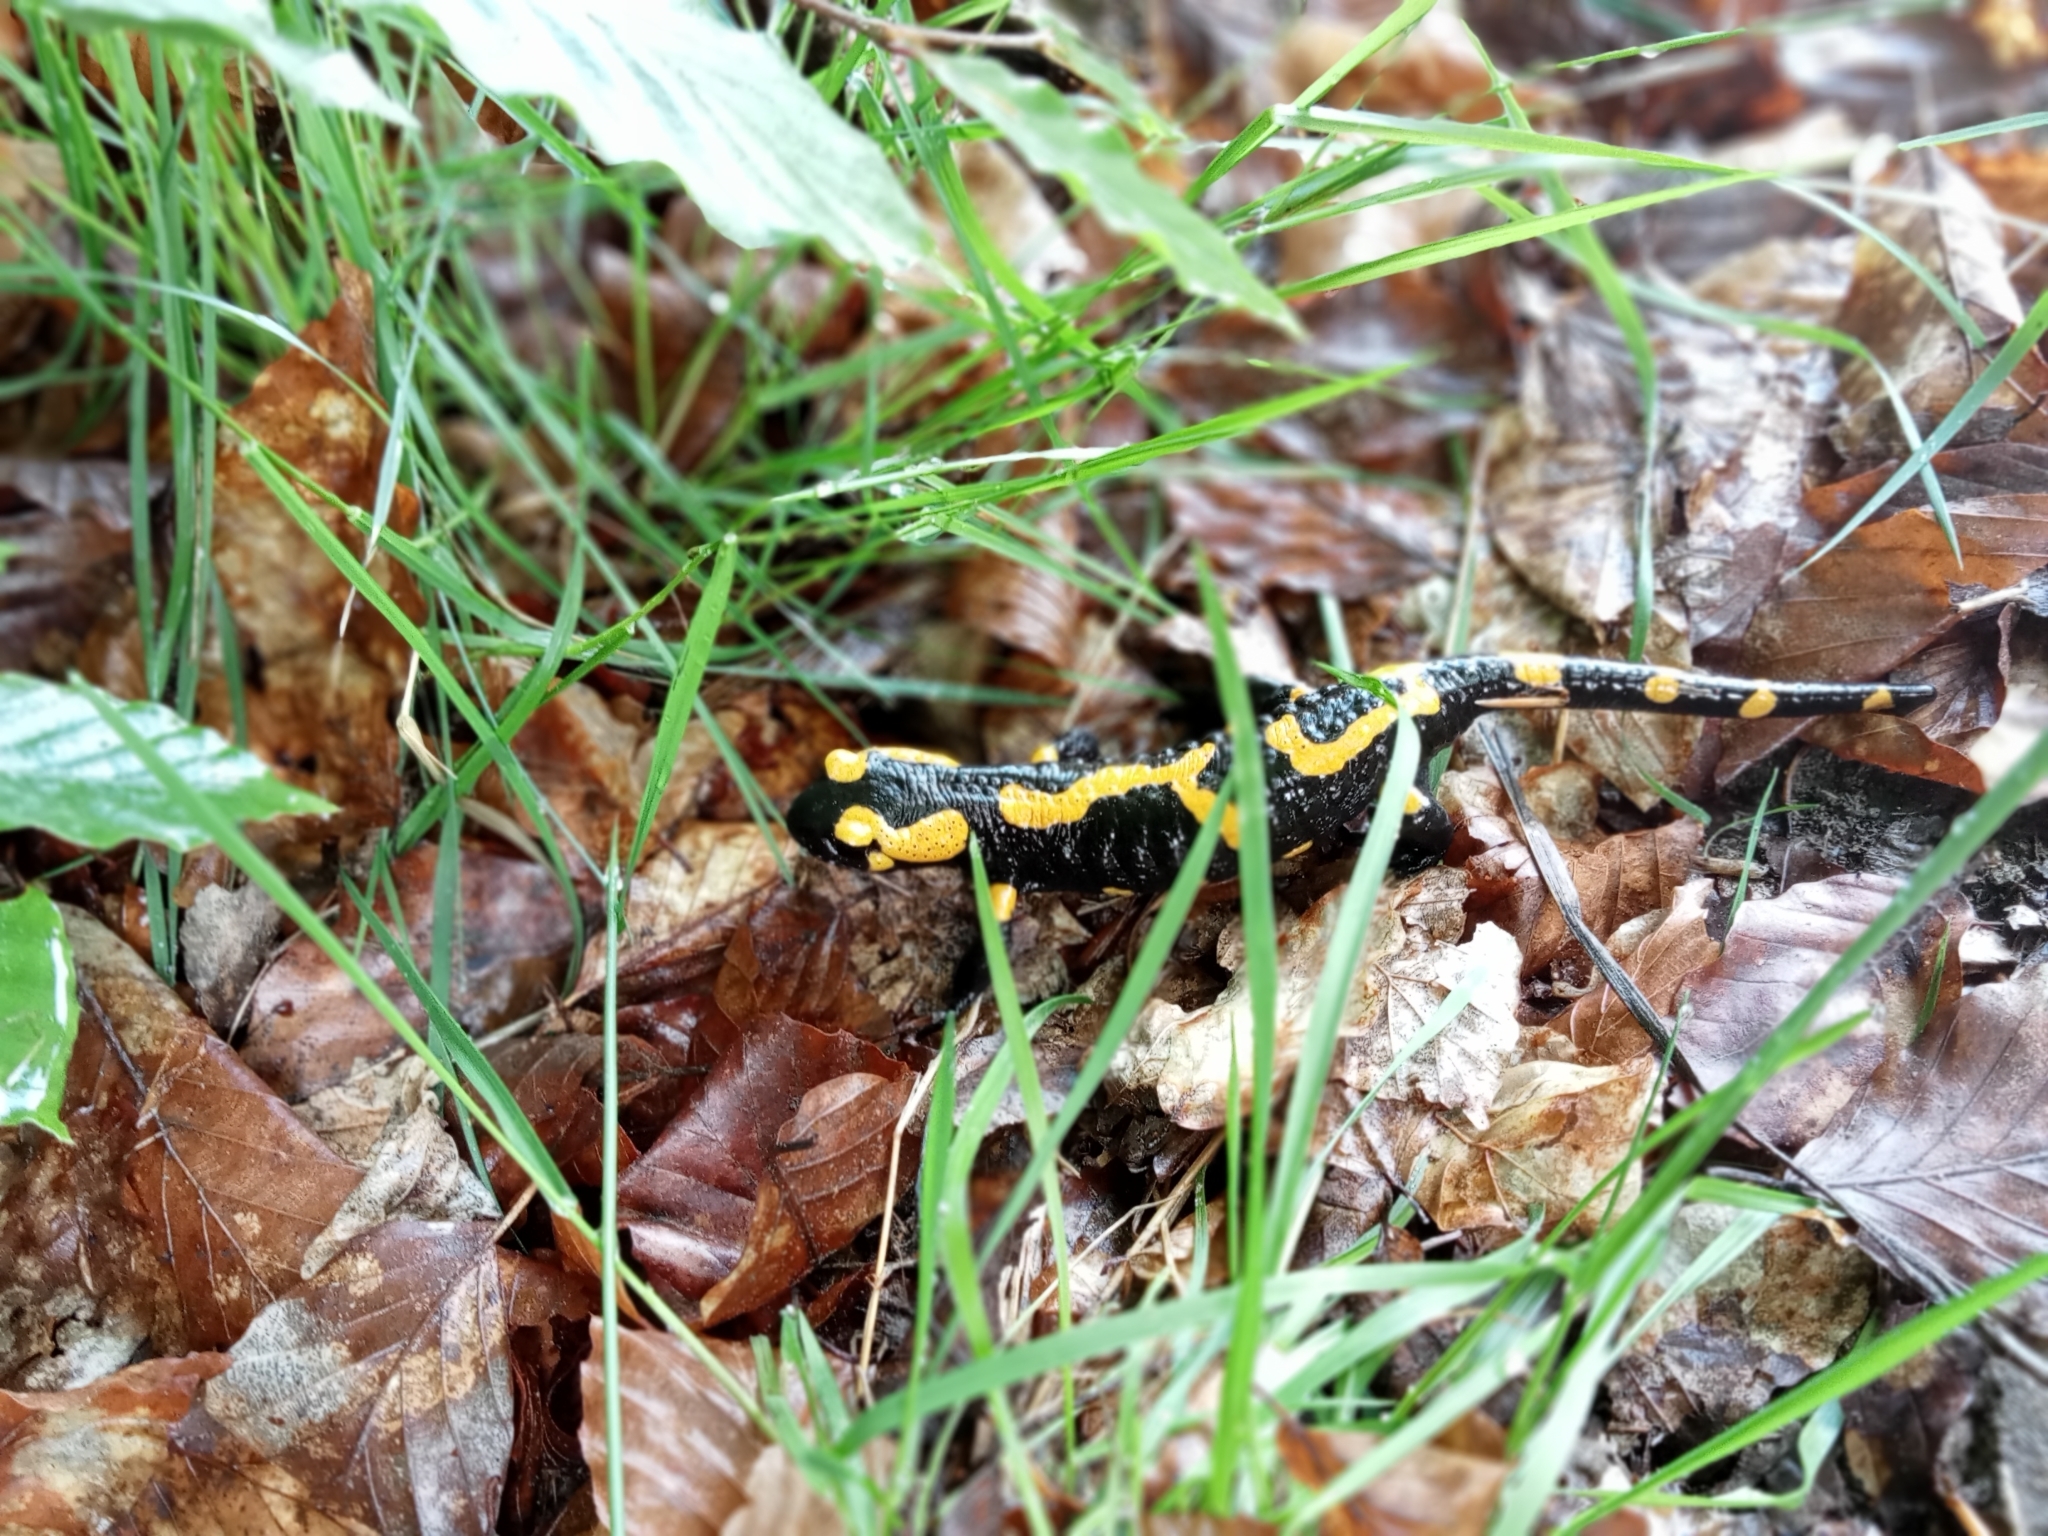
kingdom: Animalia
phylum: Chordata
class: Amphibia
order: Caudata
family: Salamandridae
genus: Salamandra
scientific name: Salamandra salamandra
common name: Fire salamander
